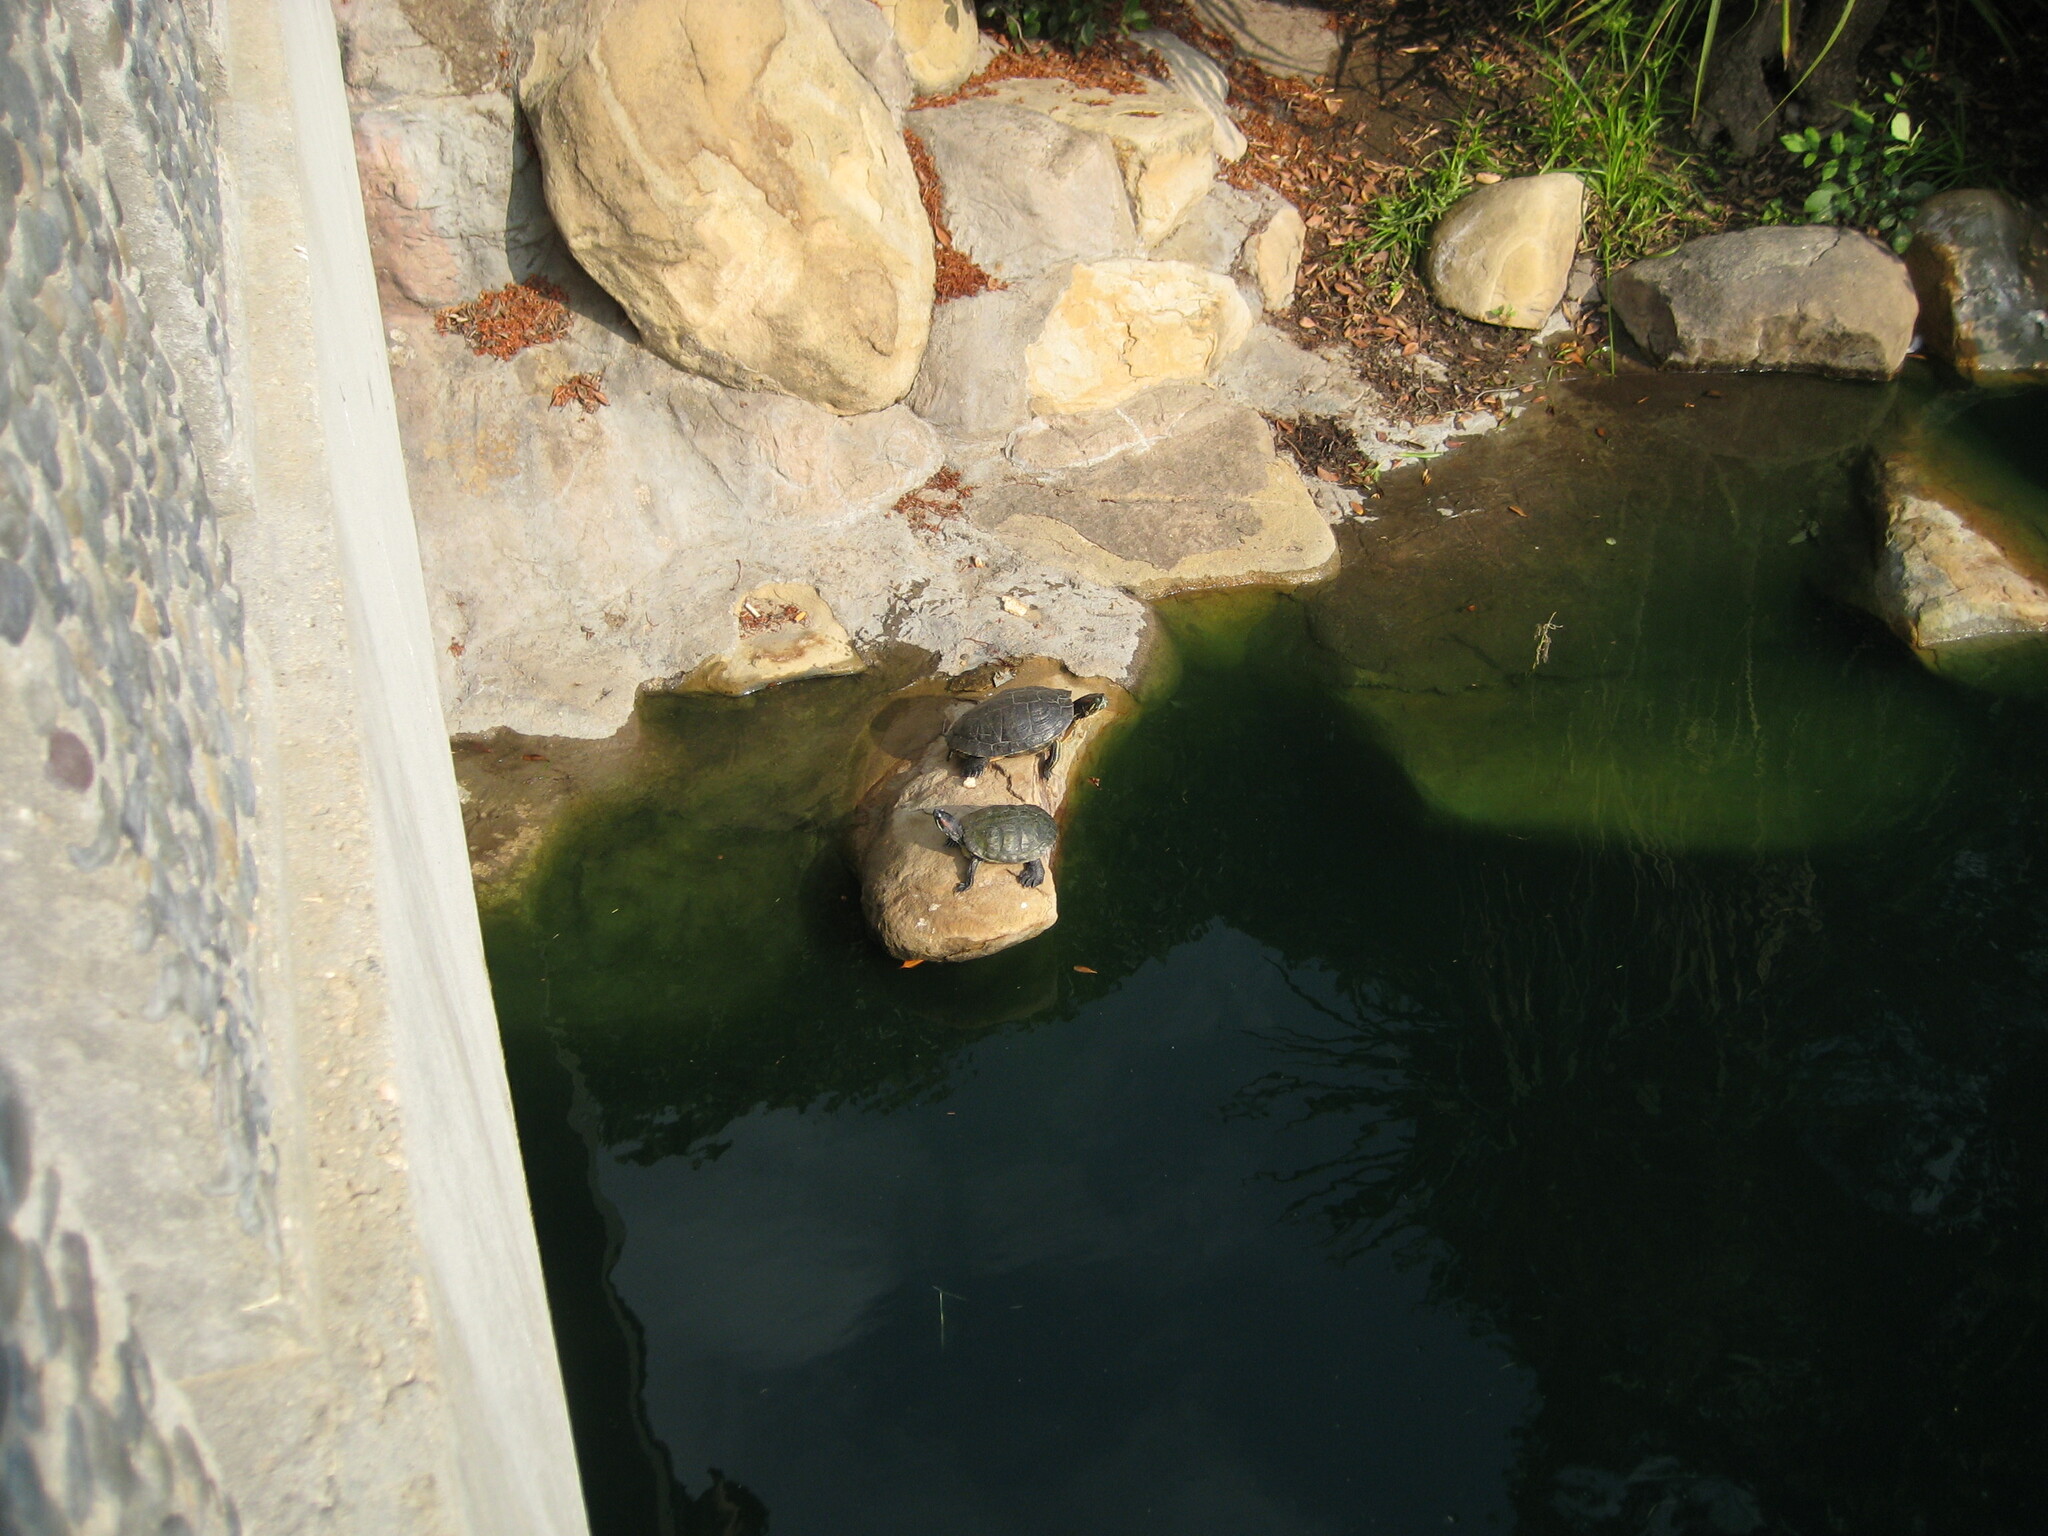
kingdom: Animalia
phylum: Chordata
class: Testudines
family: Emydidae
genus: Trachemys
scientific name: Trachemys scripta
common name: Slider
